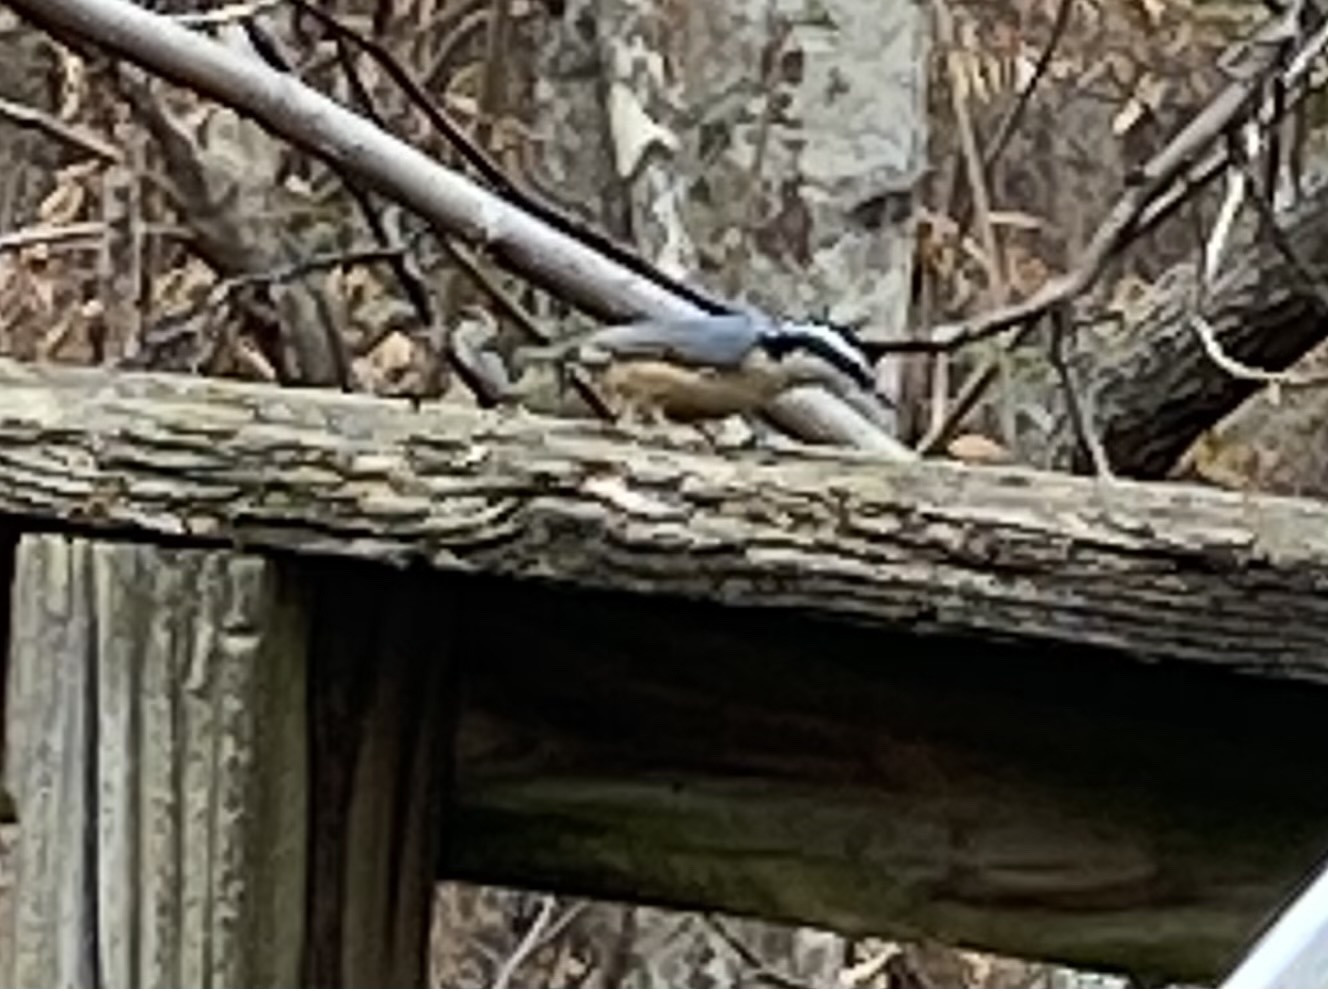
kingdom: Animalia
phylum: Chordata
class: Aves
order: Passeriformes
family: Sittidae
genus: Sitta
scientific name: Sitta canadensis
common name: Red-breasted nuthatch
